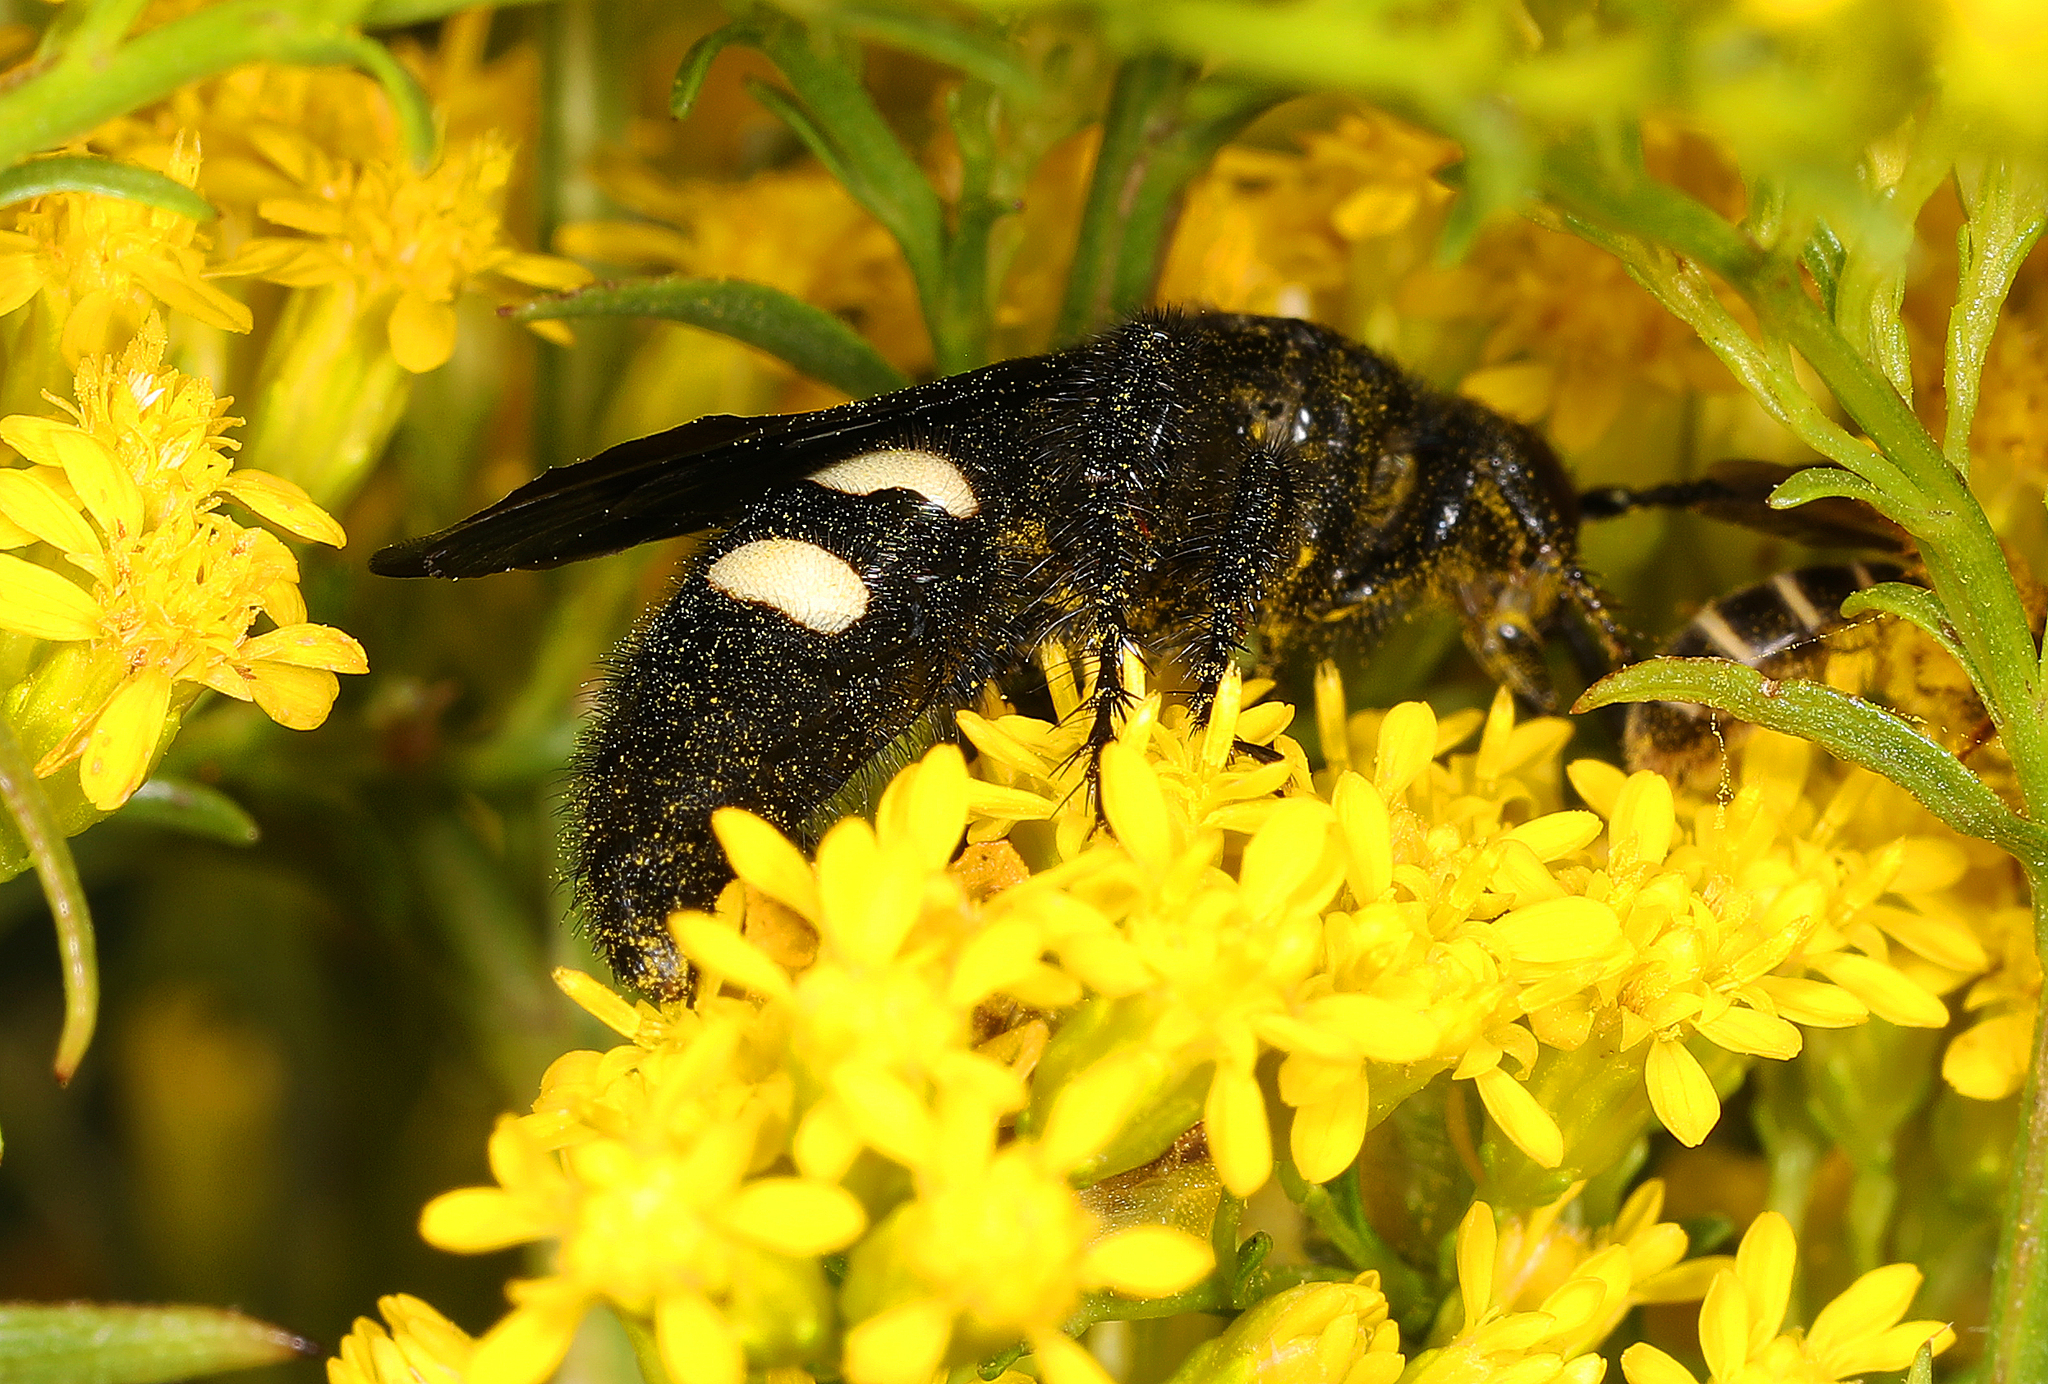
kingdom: Animalia
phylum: Arthropoda
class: Insecta
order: Hymenoptera
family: Scoliidae
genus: Scolia
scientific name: Scolia bicincta
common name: Double-banded scoliid wasp
